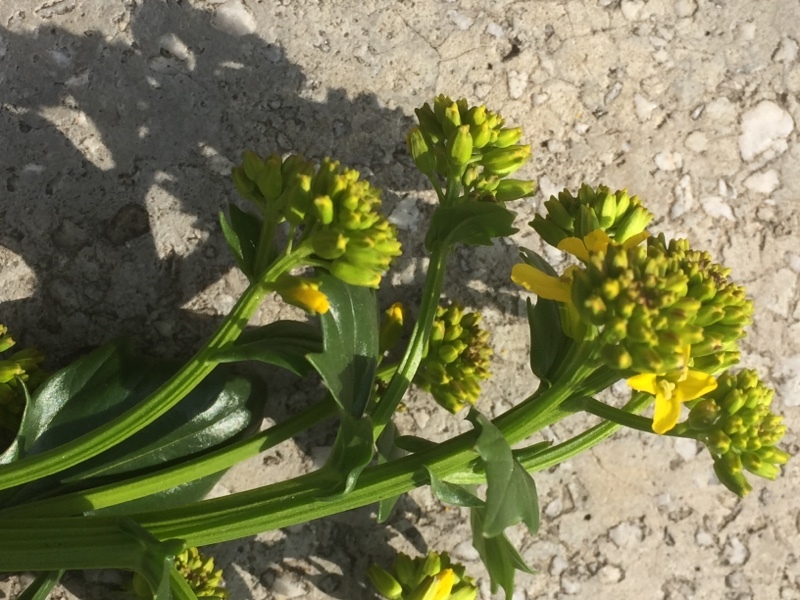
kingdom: Plantae
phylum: Tracheophyta
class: Magnoliopsida
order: Brassicales
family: Brassicaceae
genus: Barbarea
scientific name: Barbarea vulgaris
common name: Cressy-greens
